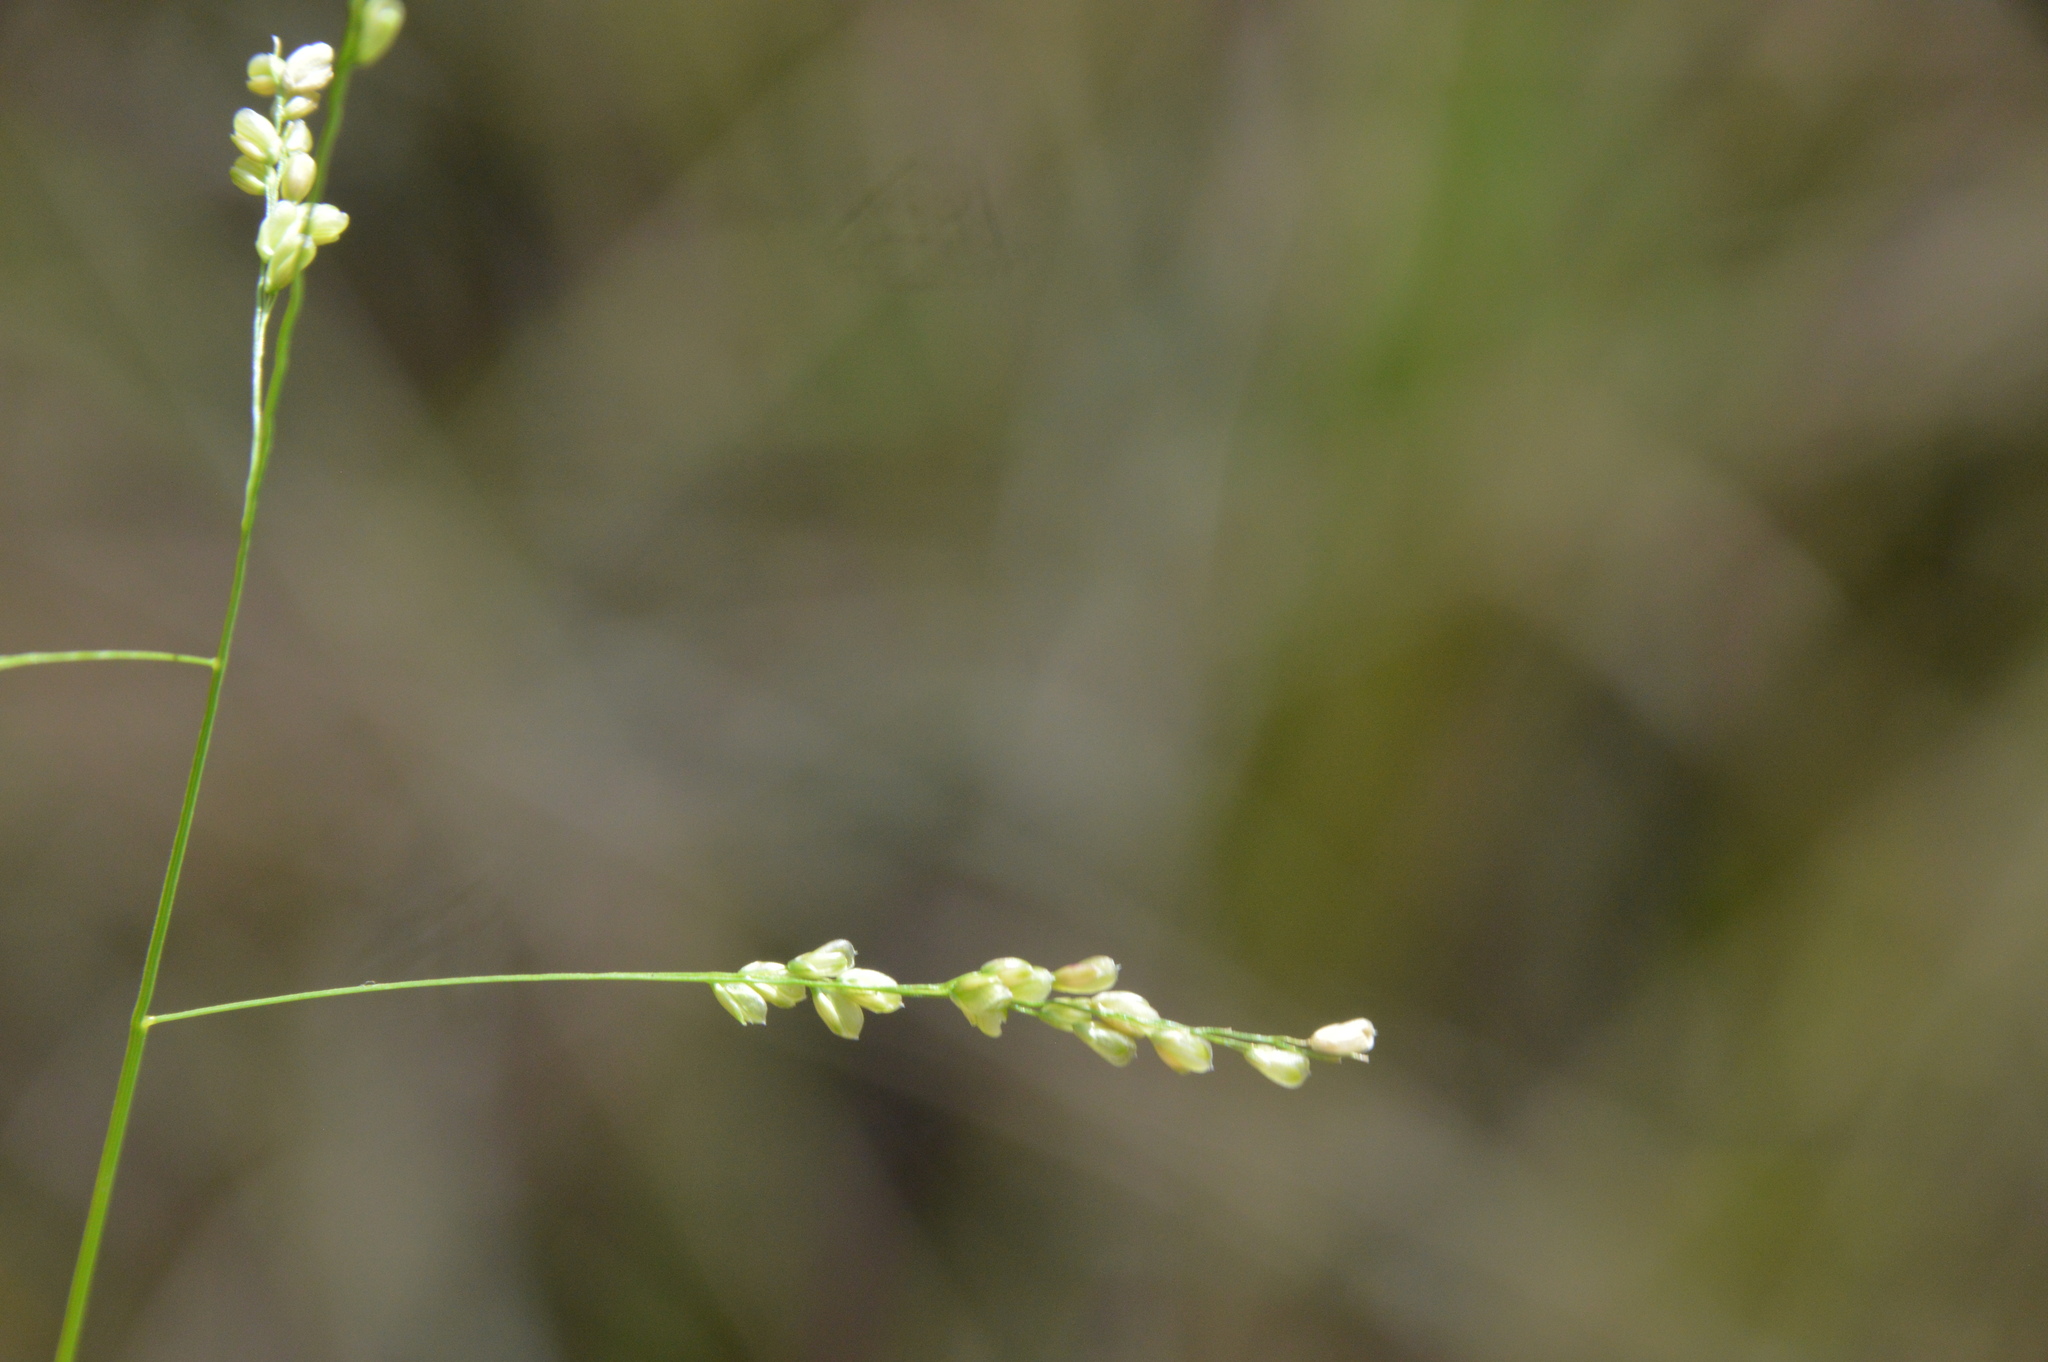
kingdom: Plantae
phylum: Tracheophyta
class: Liliopsida
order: Poales
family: Poaceae
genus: Steinchisma
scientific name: Steinchisma hians
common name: Gaping panic grass
